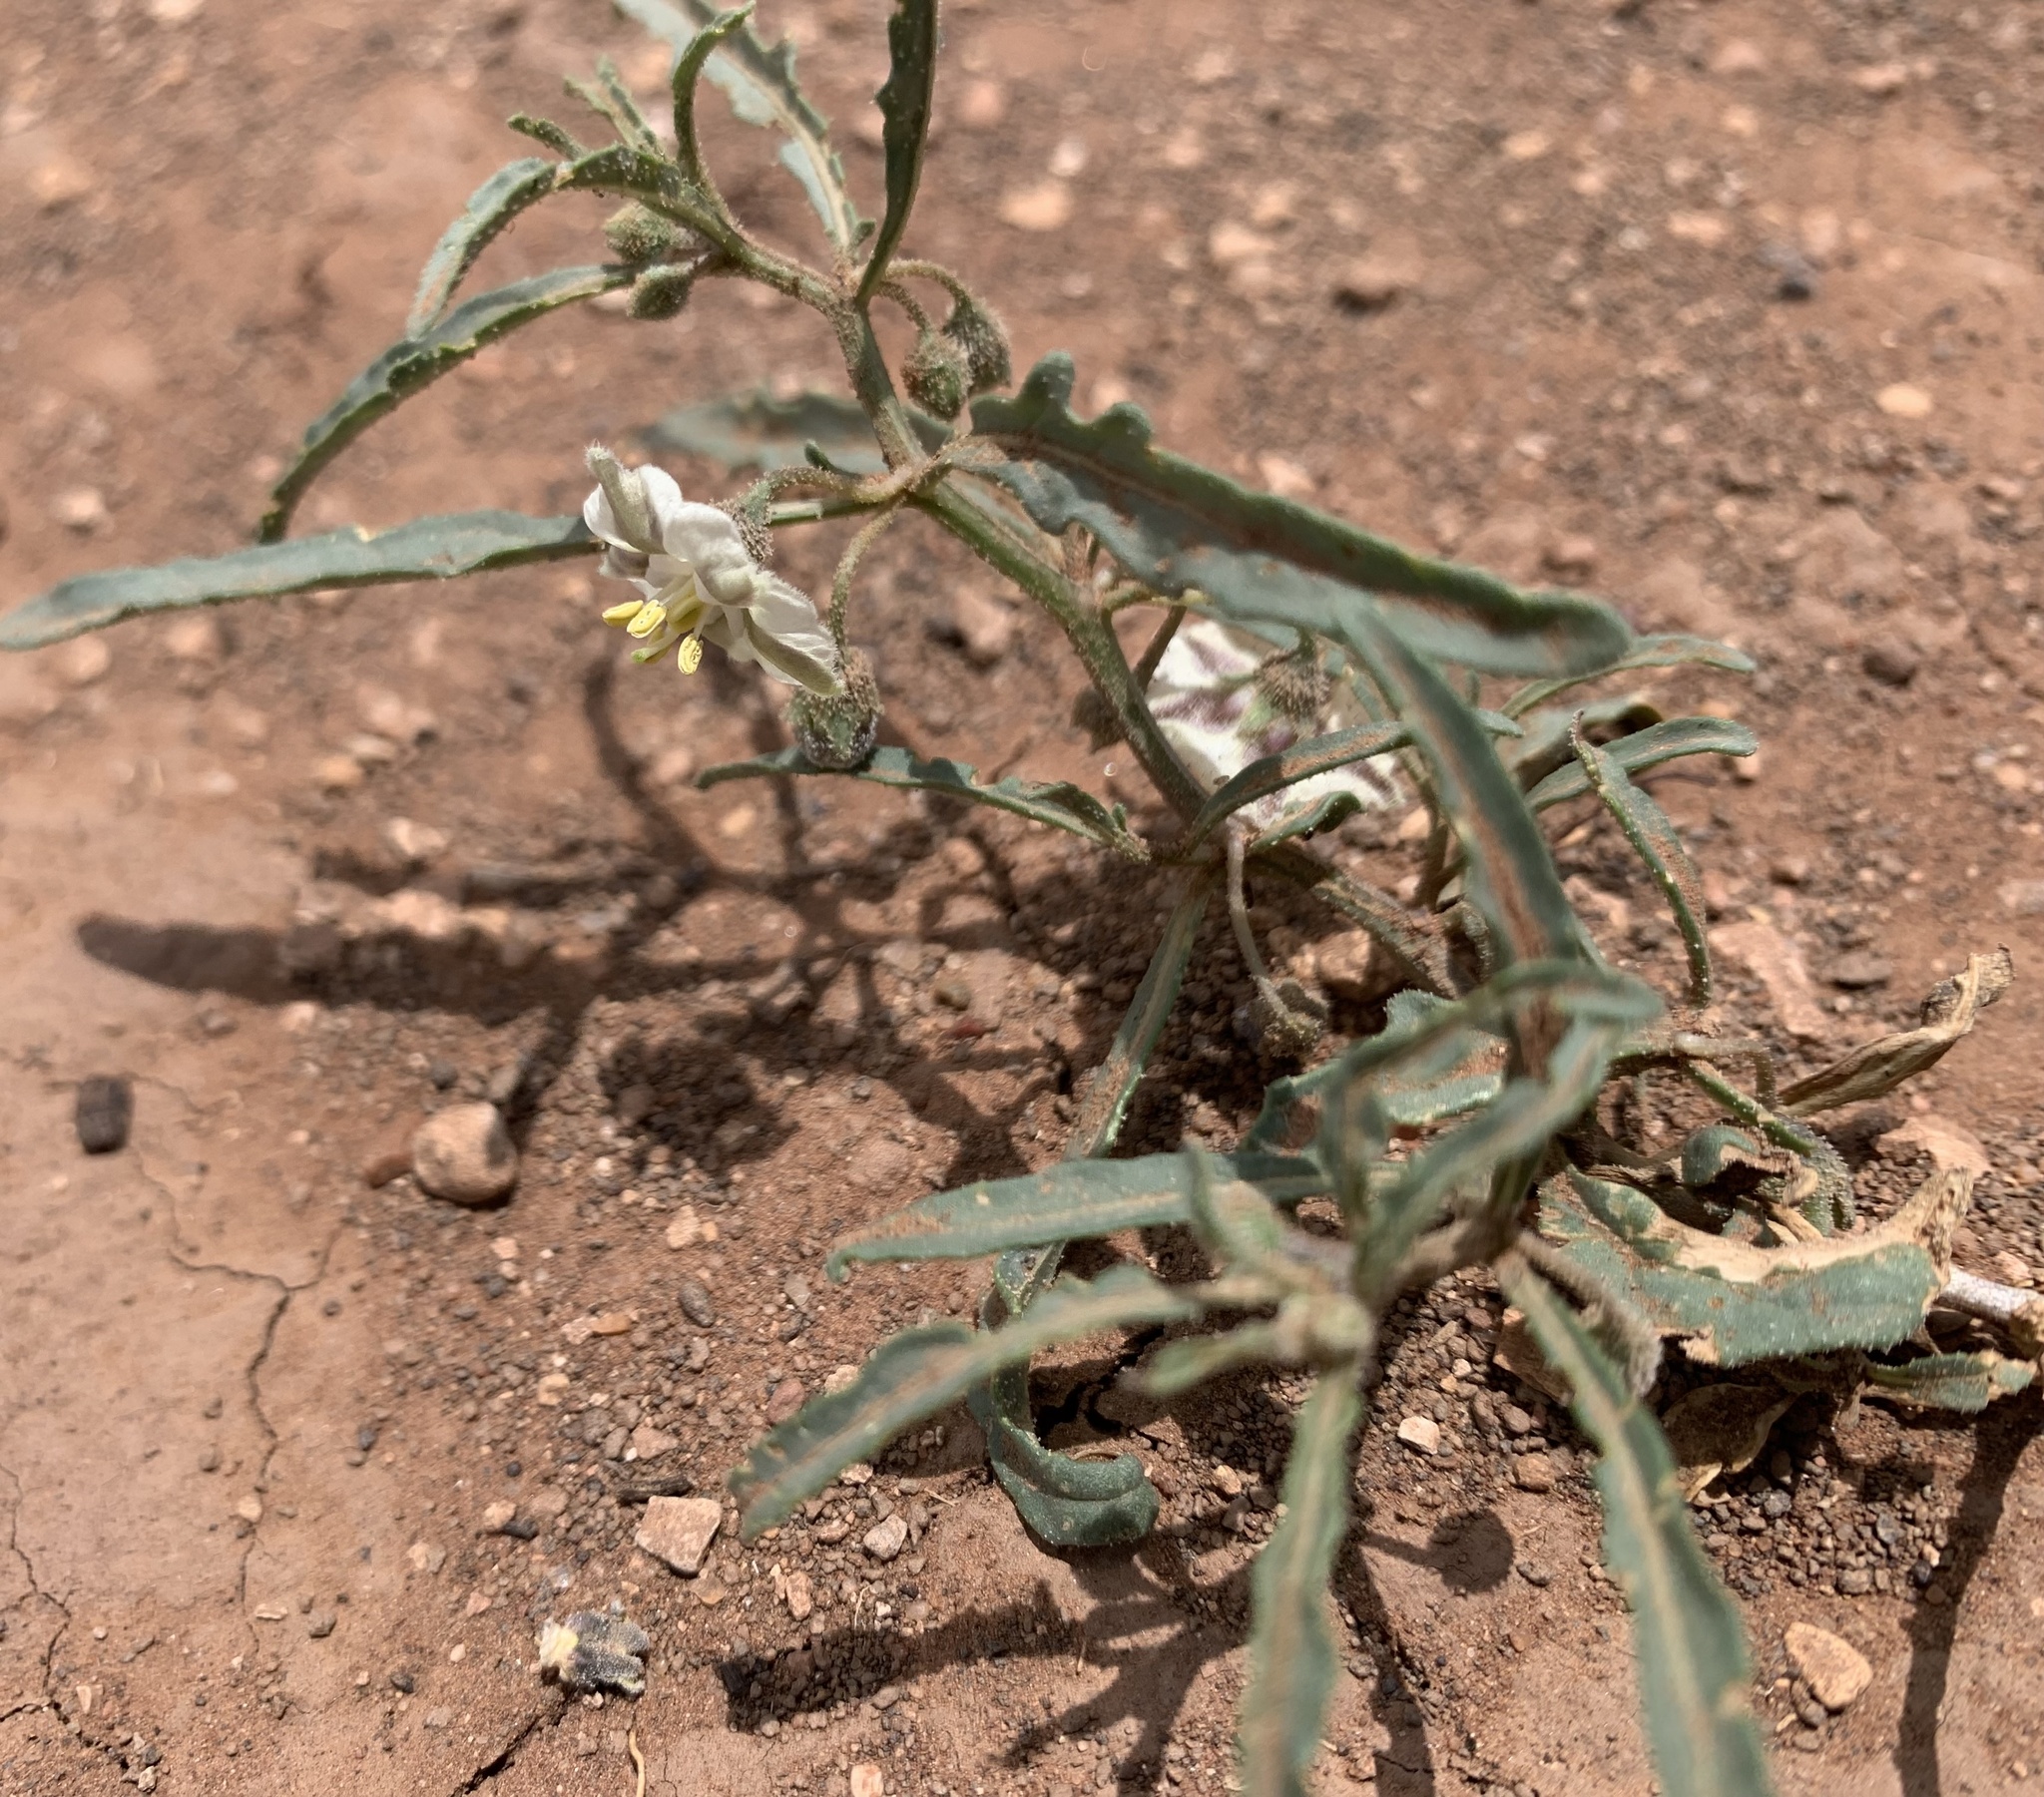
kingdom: Plantae
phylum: Tracheophyta
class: Magnoliopsida
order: Solanales
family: Solanaceae
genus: Chamaesaracha
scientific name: Chamaesaracha coronopus
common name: Smooth chamaesaracha
